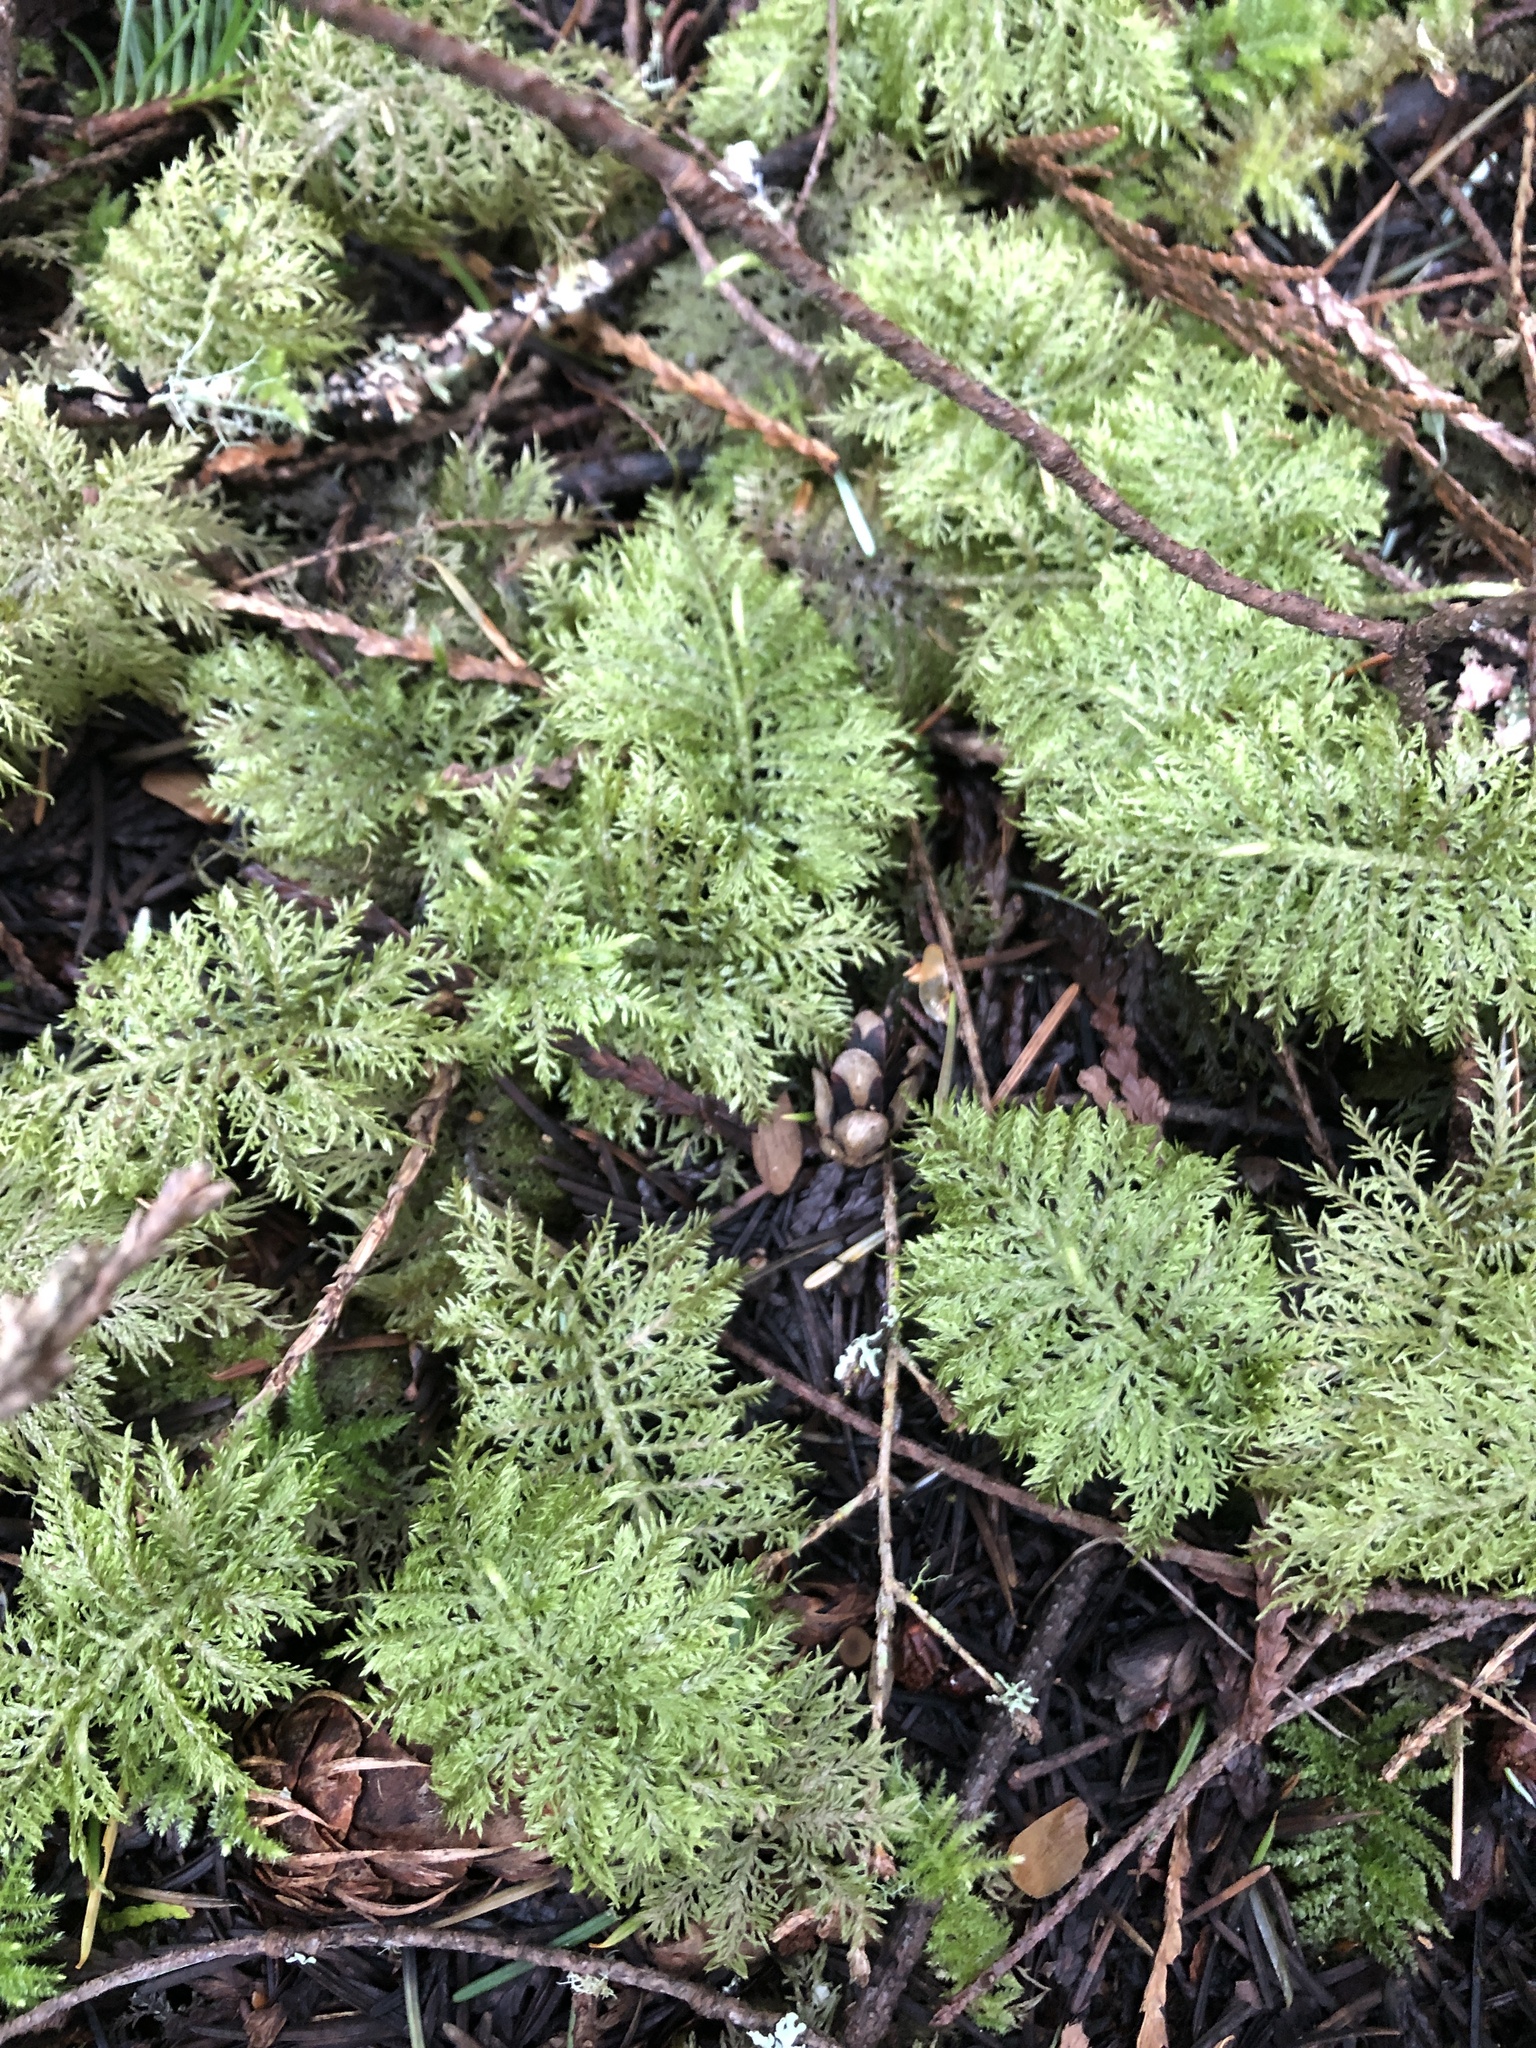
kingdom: Plantae
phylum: Bryophyta
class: Bryopsida
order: Hypnales
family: Hylocomiaceae
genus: Hylocomium
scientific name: Hylocomium splendens
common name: Stairstep moss
